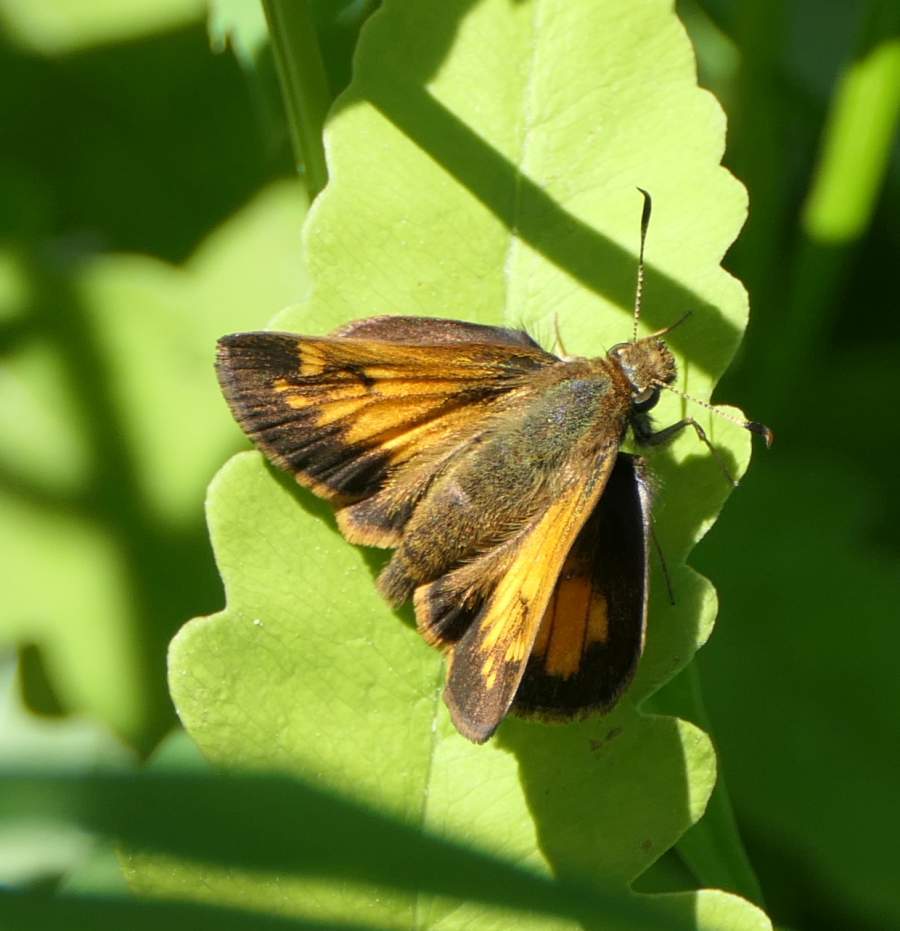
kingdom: Animalia
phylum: Arthropoda
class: Insecta
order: Lepidoptera
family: Hesperiidae
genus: Lon
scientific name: Lon hobomok
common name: Hobomok skipper
